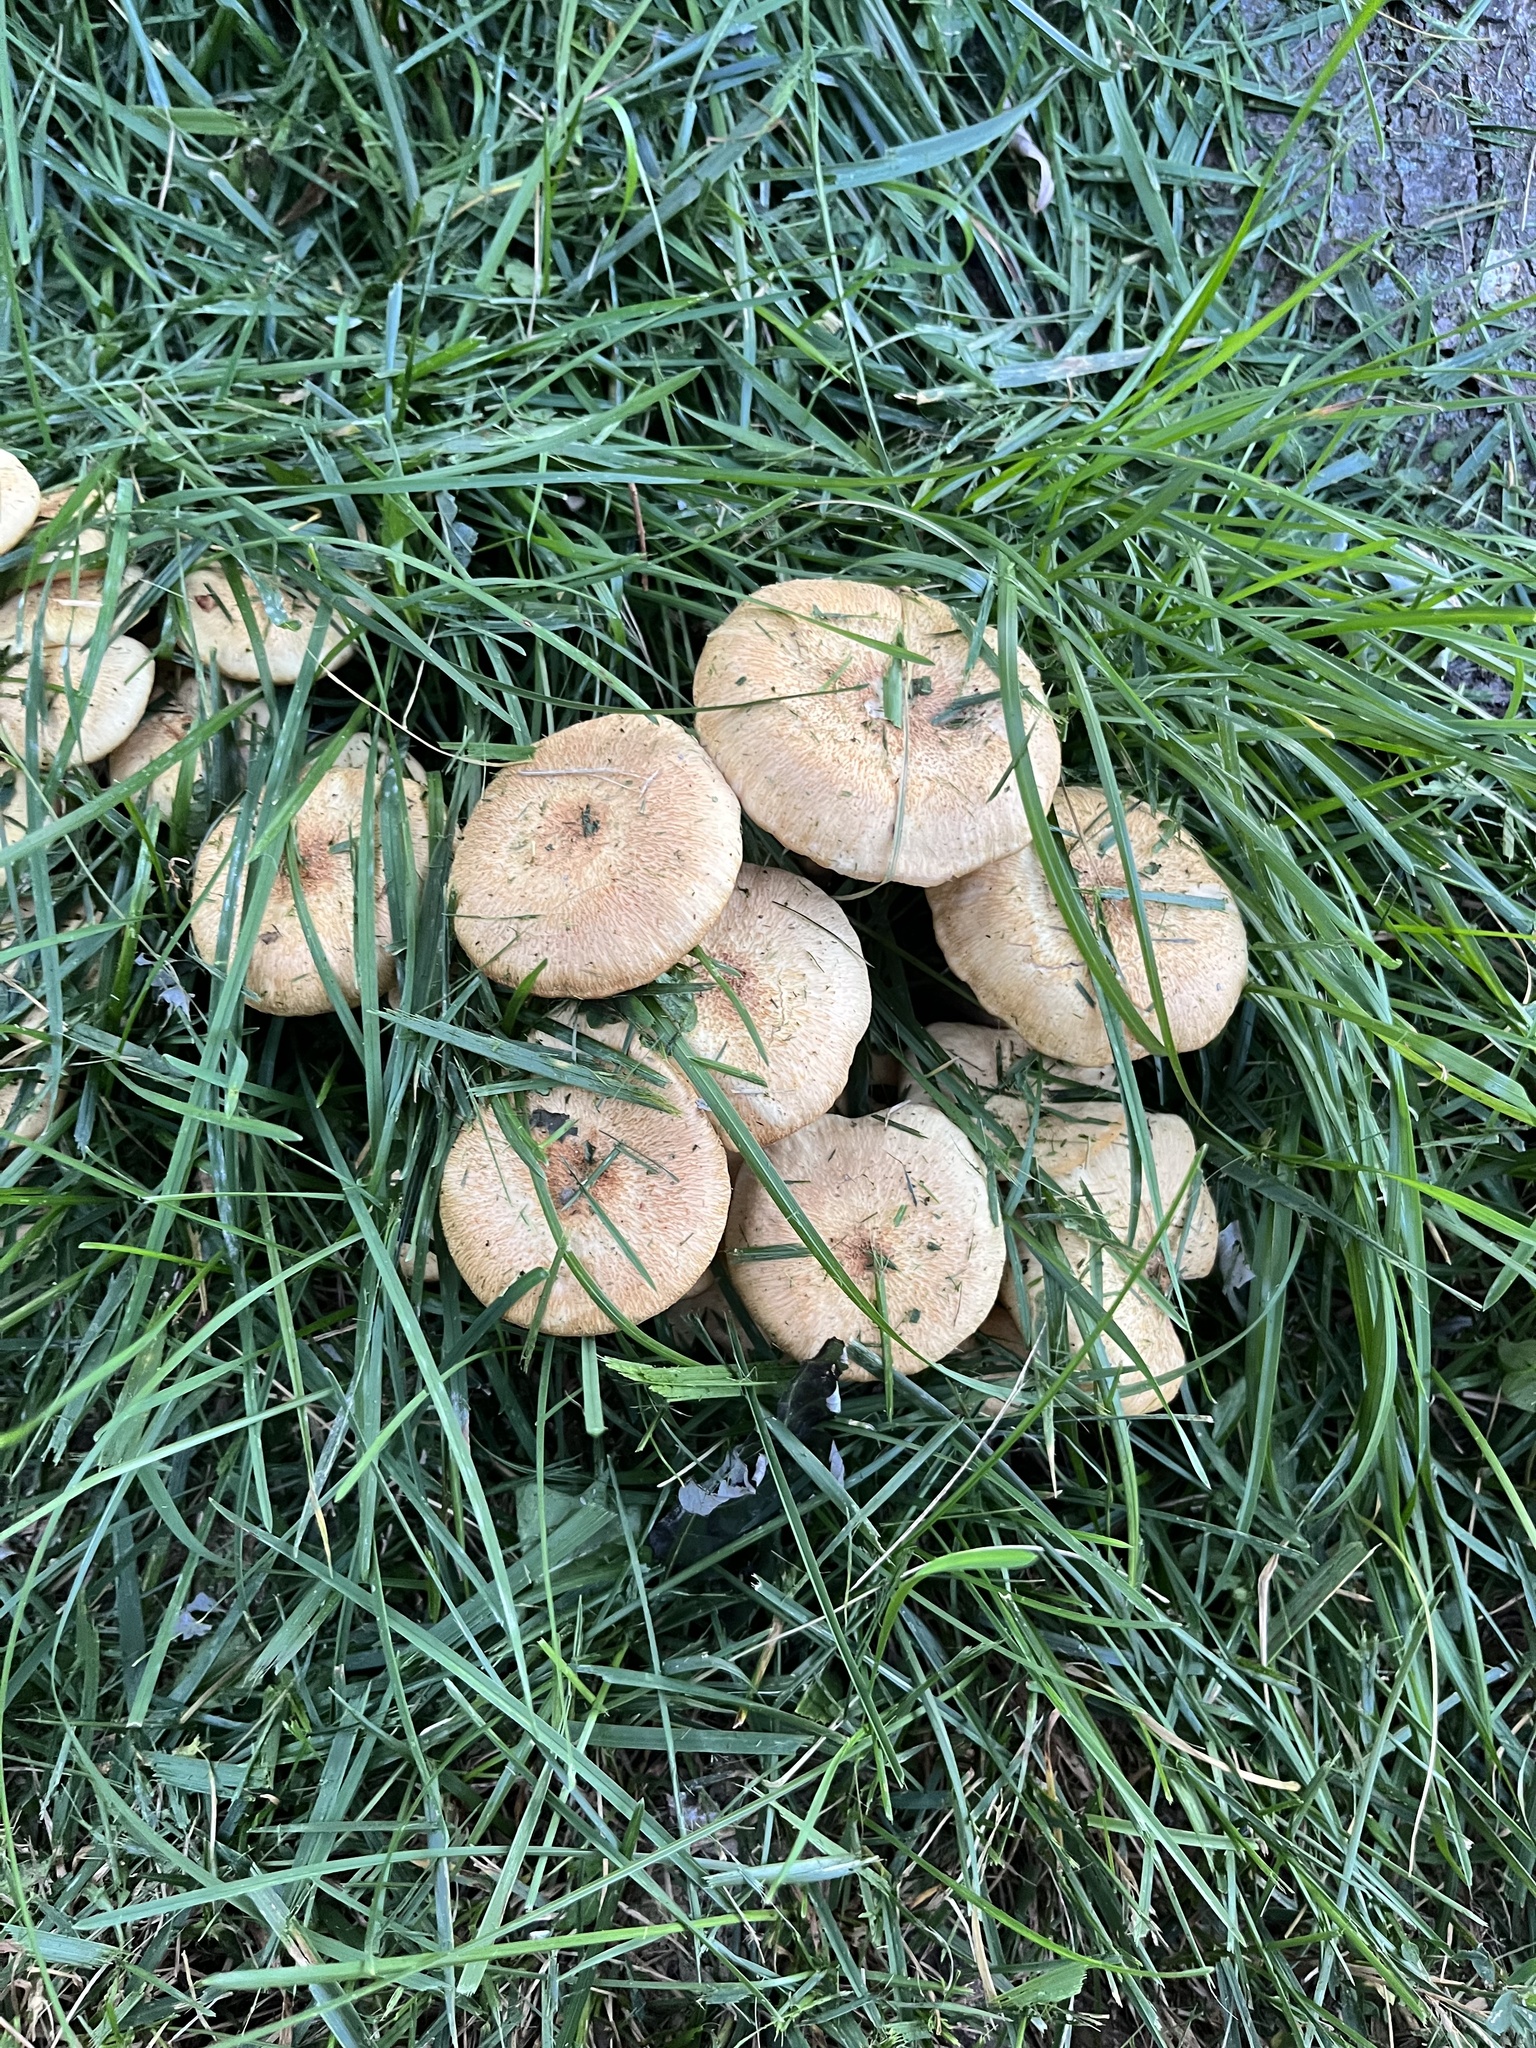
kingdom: Fungi
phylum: Basidiomycota
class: Agaricomycetes
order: Agaricales
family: Physalacriaceae
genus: Desarmillaria
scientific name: Desarmillaria caespitosa
